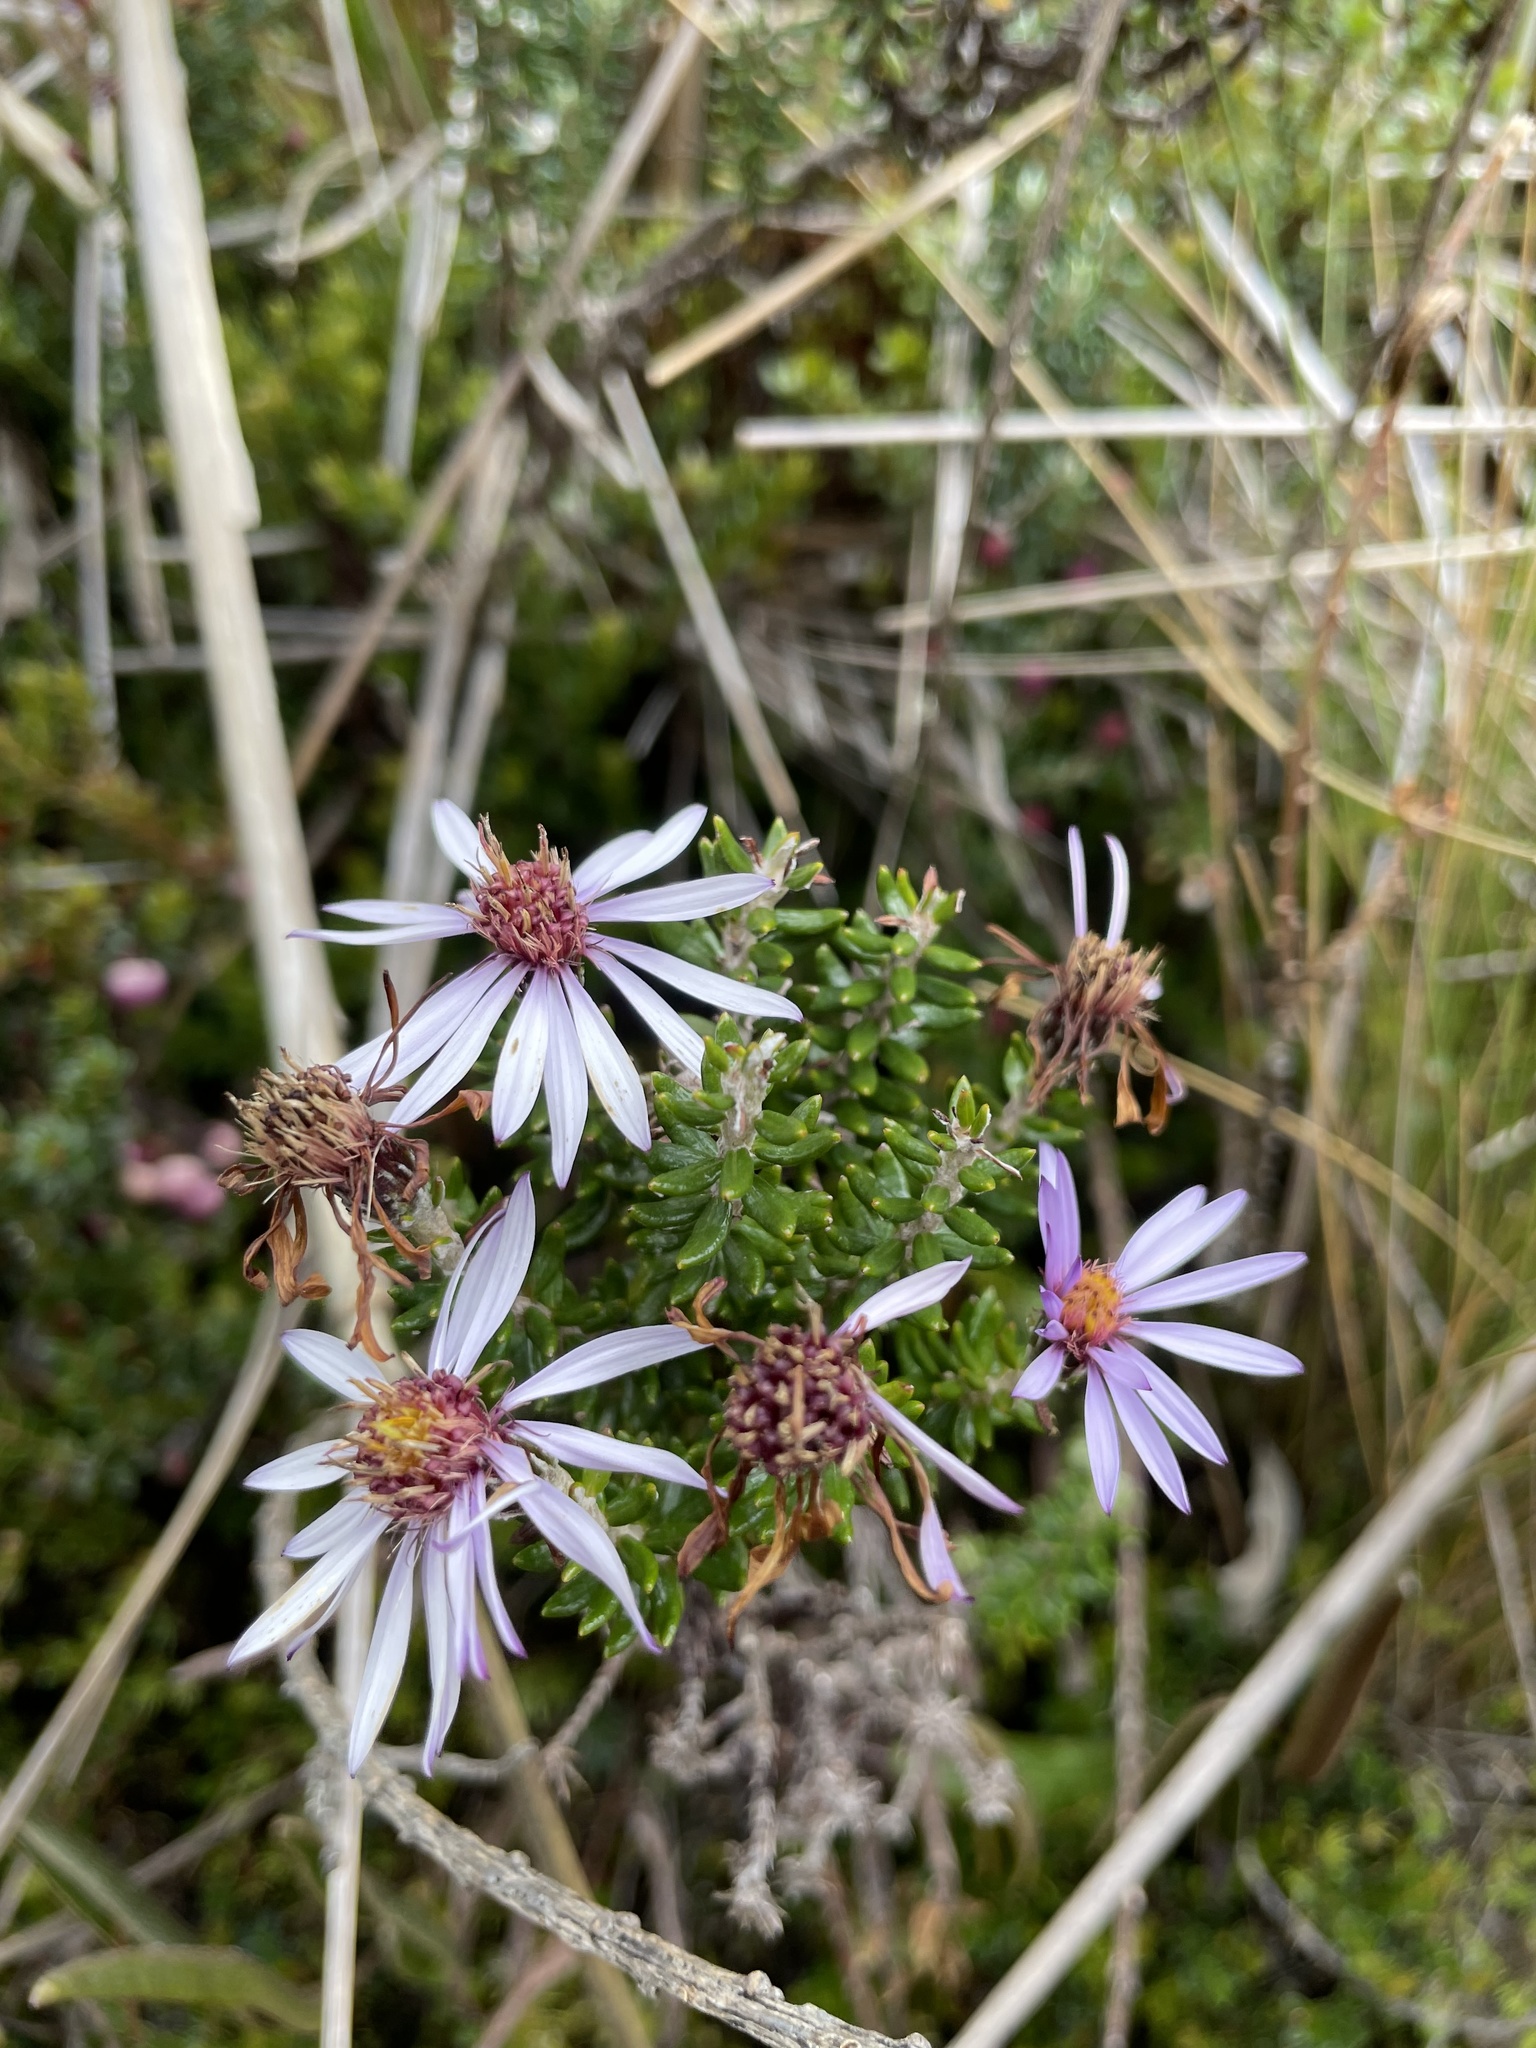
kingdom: Plantae
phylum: Tracheophyta
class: Magnoliopsida
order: Asterales
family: Asteraceae
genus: Diplostephium
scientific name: Diplostephium hartwegii
